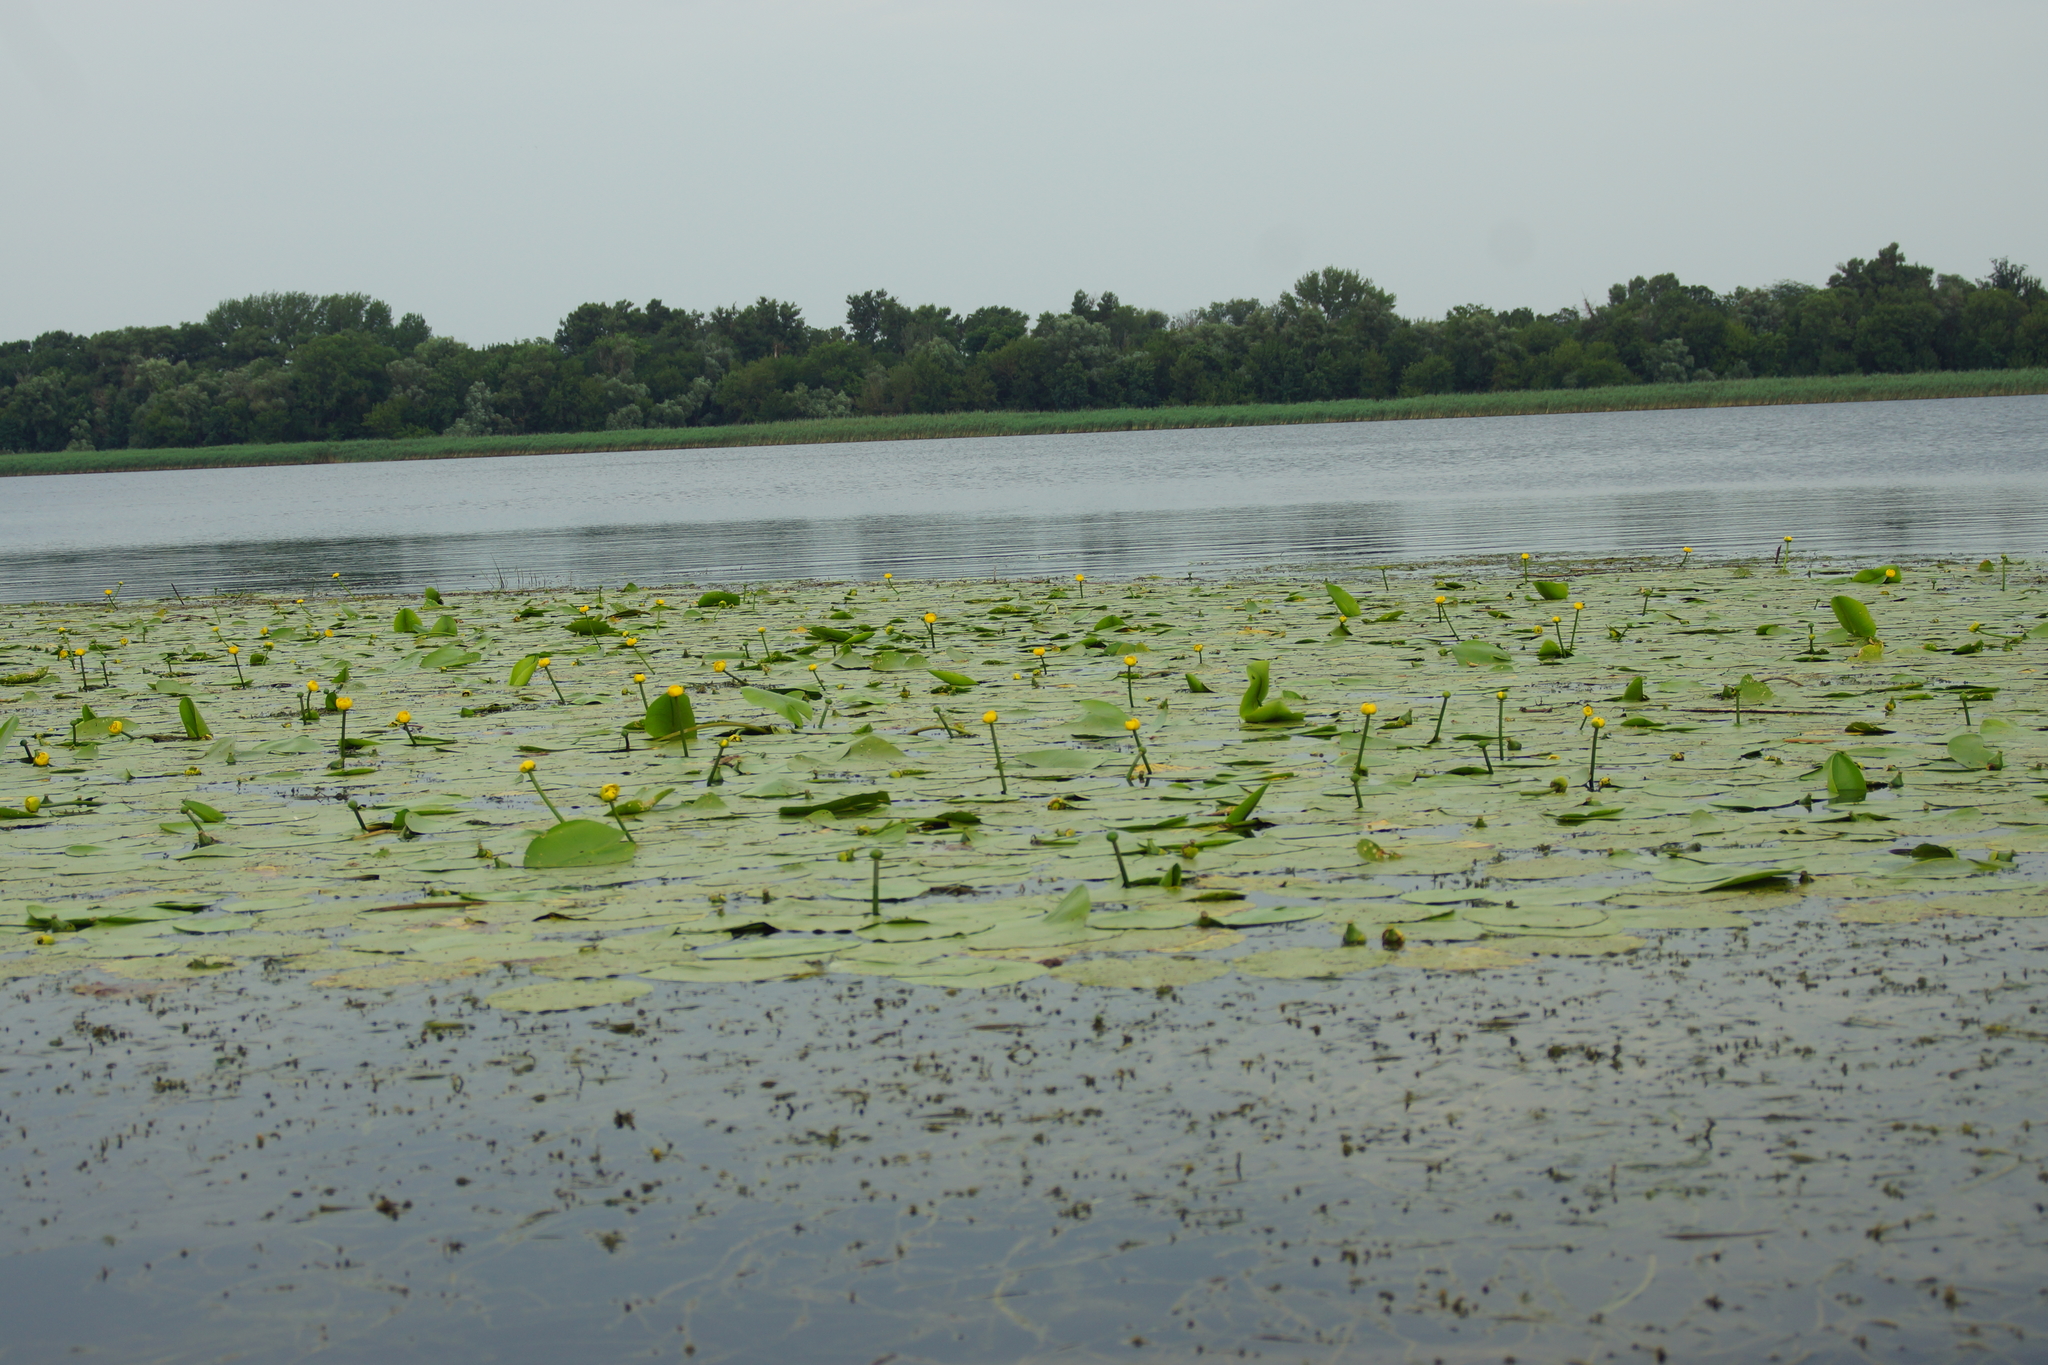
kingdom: Plantae
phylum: Tracheophyta
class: Magnoliopsida
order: Nymphaeales
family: Nymphaeaceae
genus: Nuphar
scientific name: Nuphar lutea
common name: Yellow water-lily
